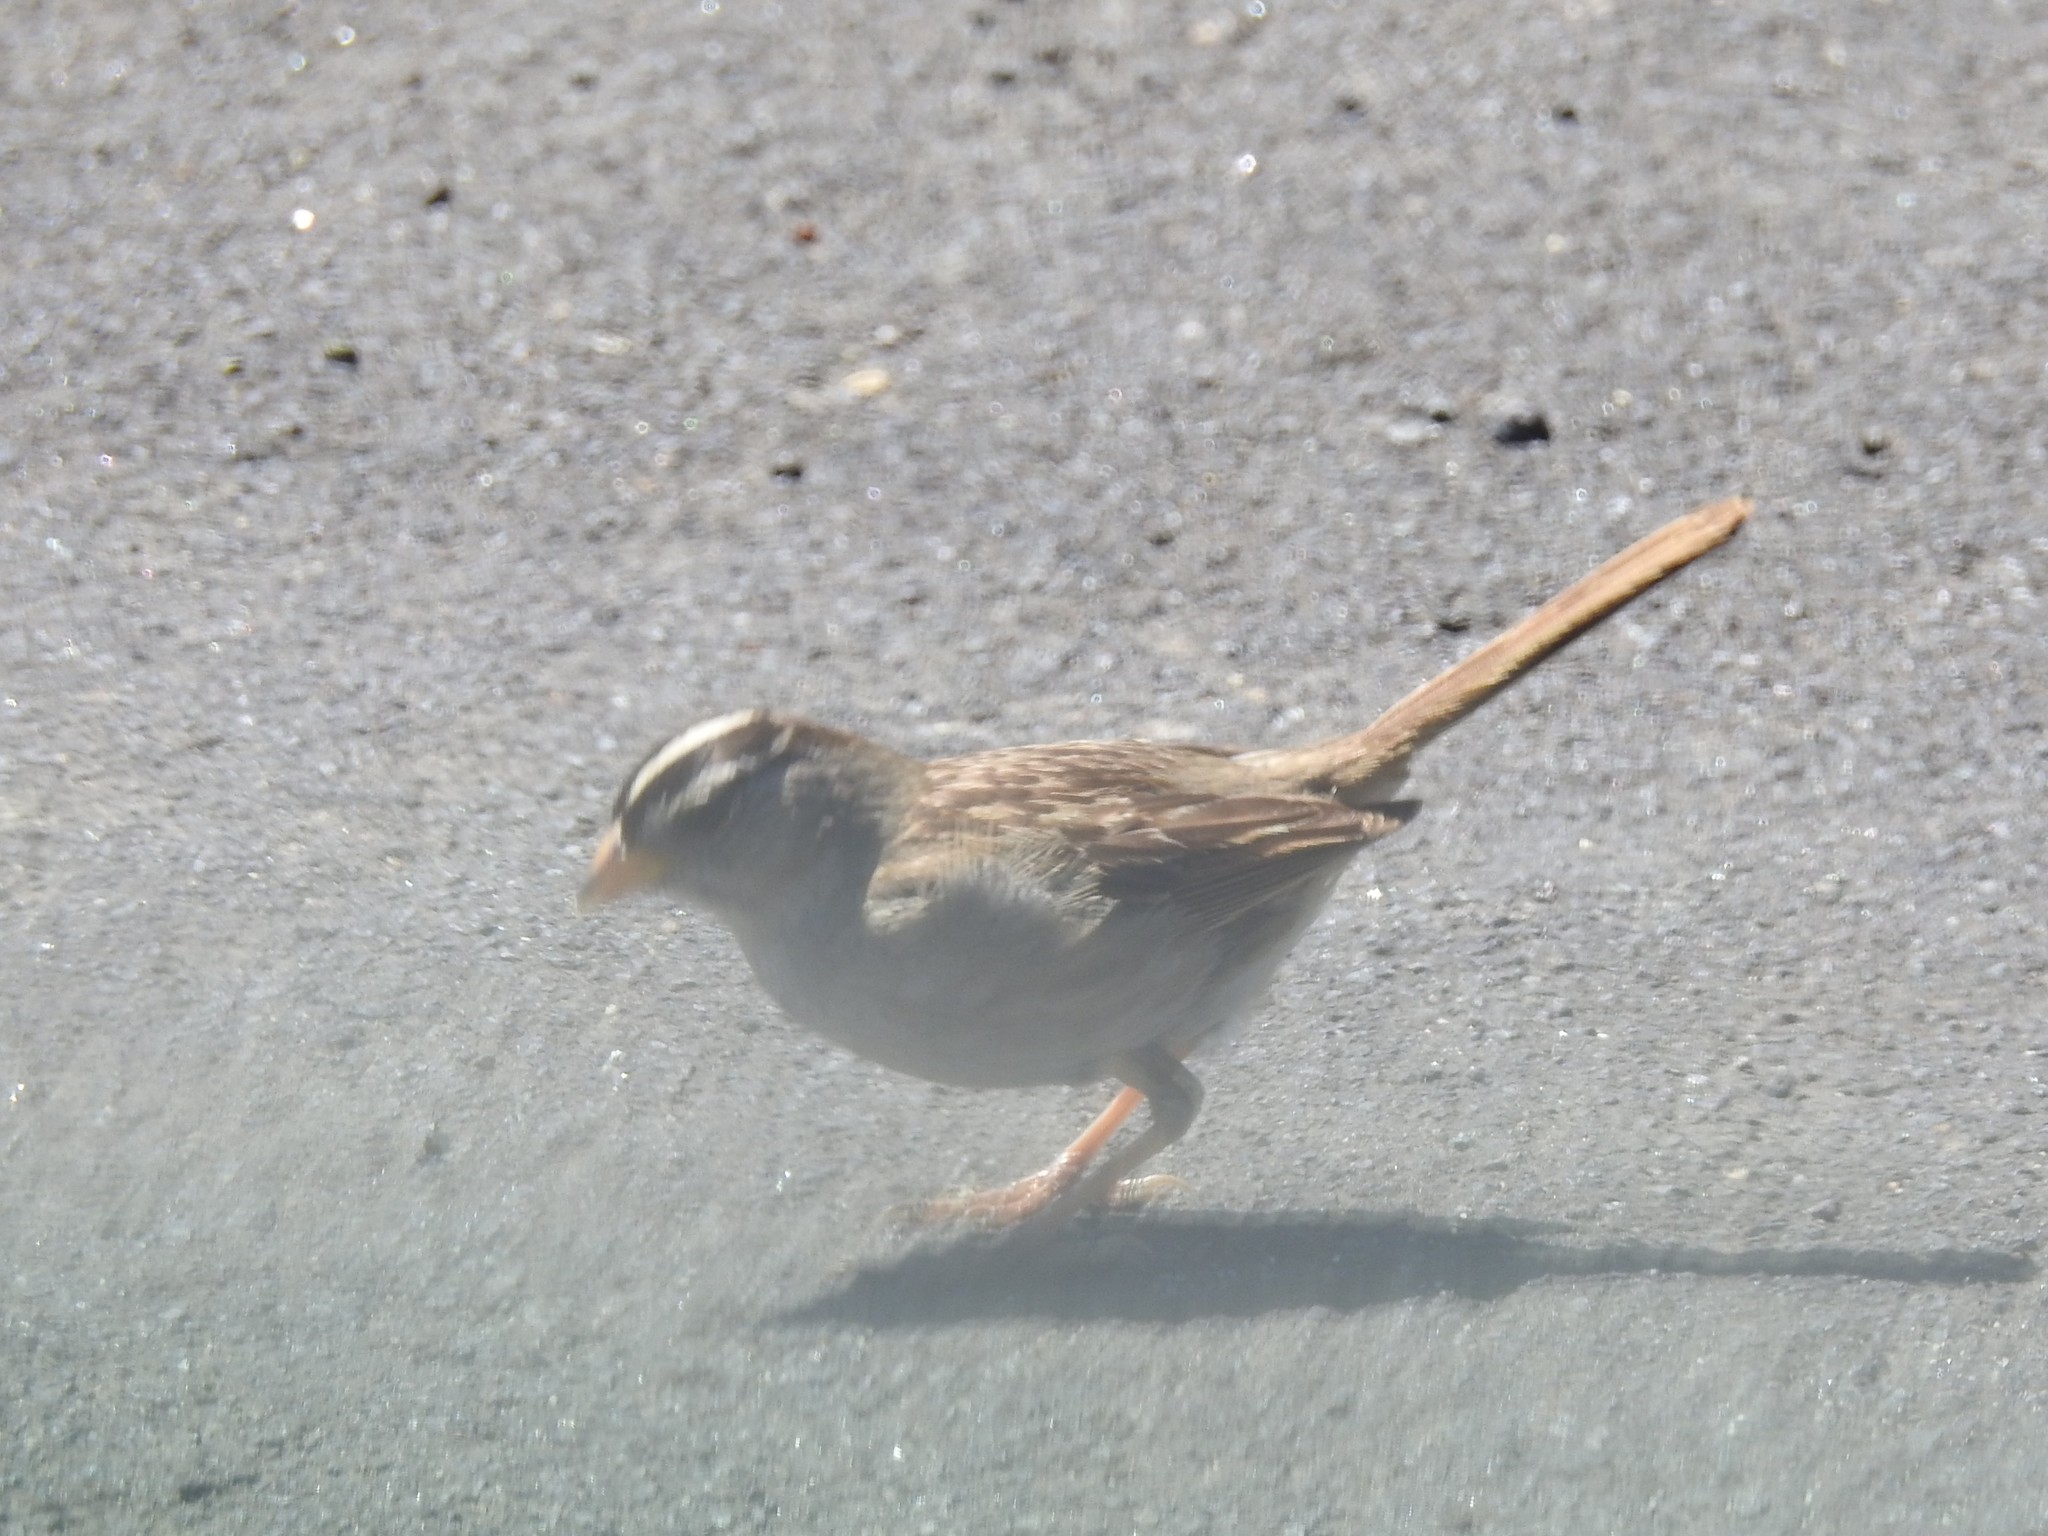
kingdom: Animalia
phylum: Chordata
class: Aves
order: Passeriformes
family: Passerellidae
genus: Zonotrichia
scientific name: Zonotrichia leucophrys
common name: White-crowned sparrow
